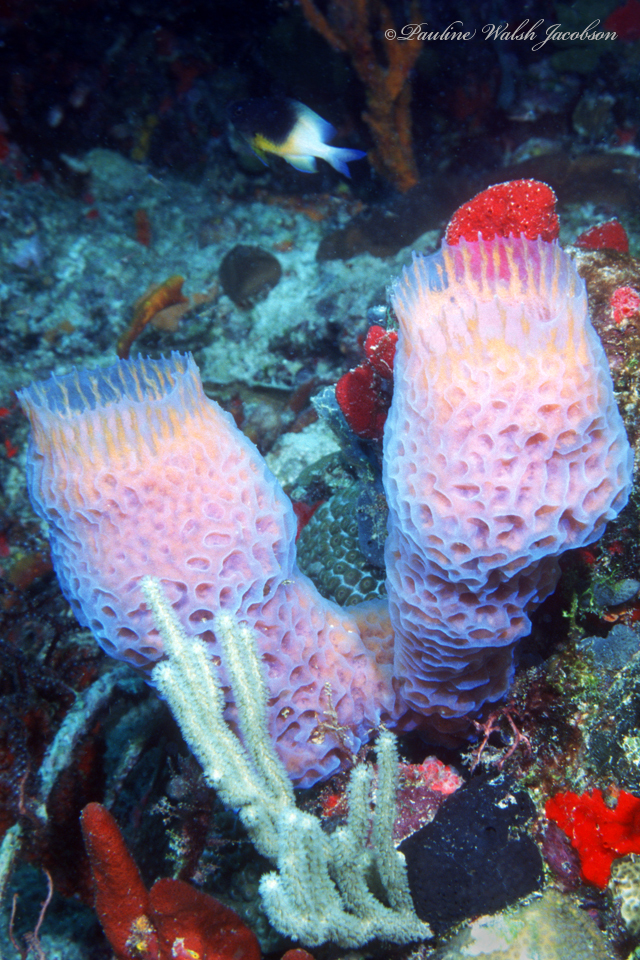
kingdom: Animalia
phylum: Porifera
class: Demospongiae
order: Haplosclerida
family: Callyspongiidae
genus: Callyspongia
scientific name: Callyspongia plicifera
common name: Azure vase sponge
